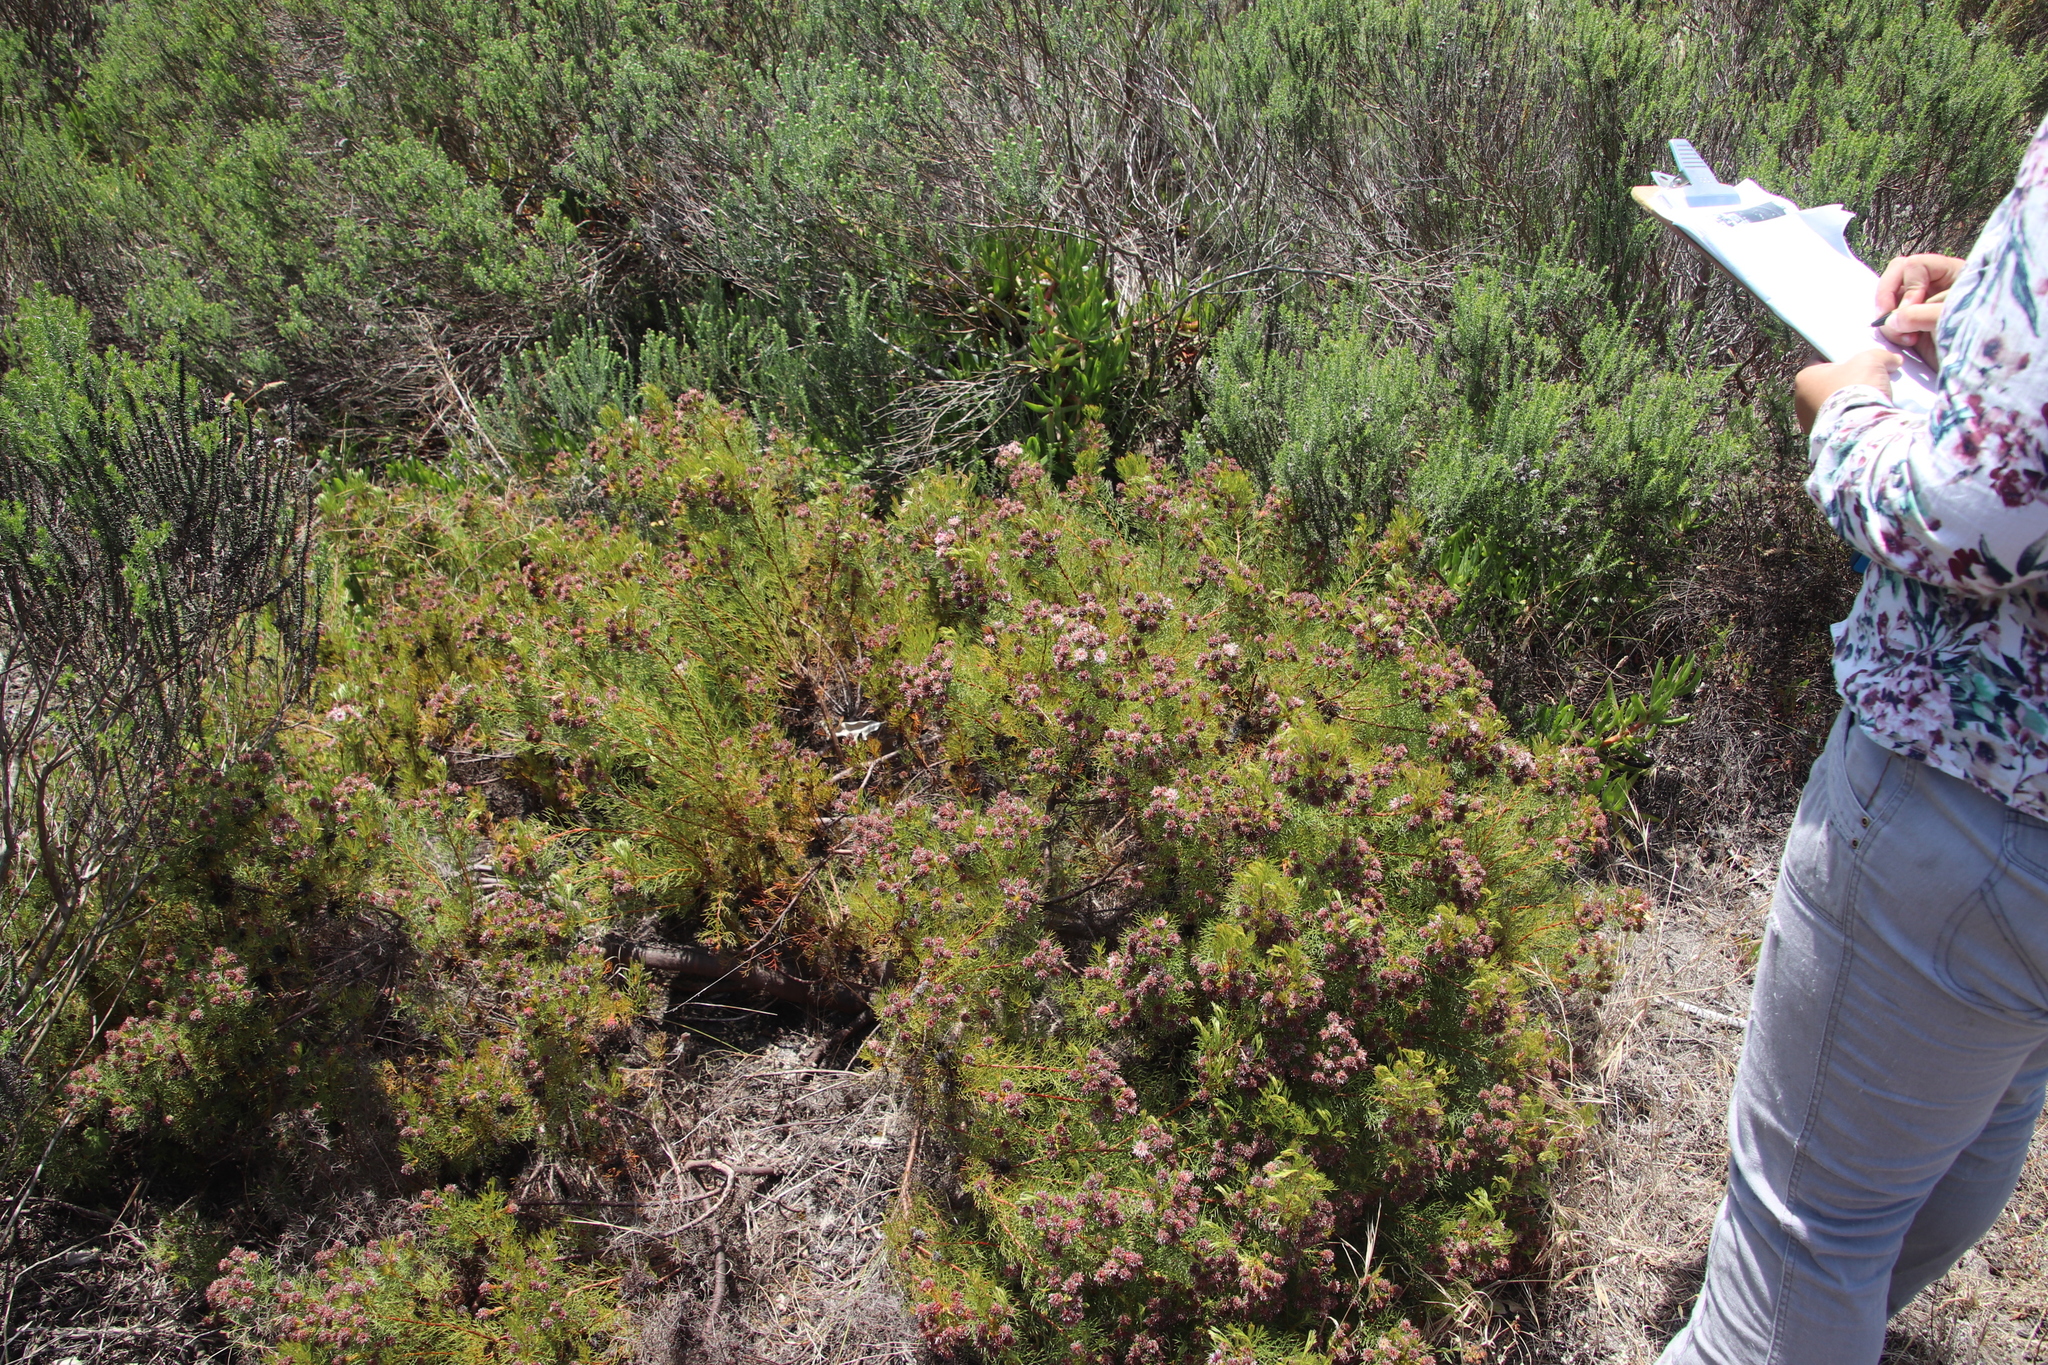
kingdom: Plantae
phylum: Tracheophyta
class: Magnoliopsida
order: Proteales
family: Proteaceae
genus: Serruria
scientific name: Serruria
